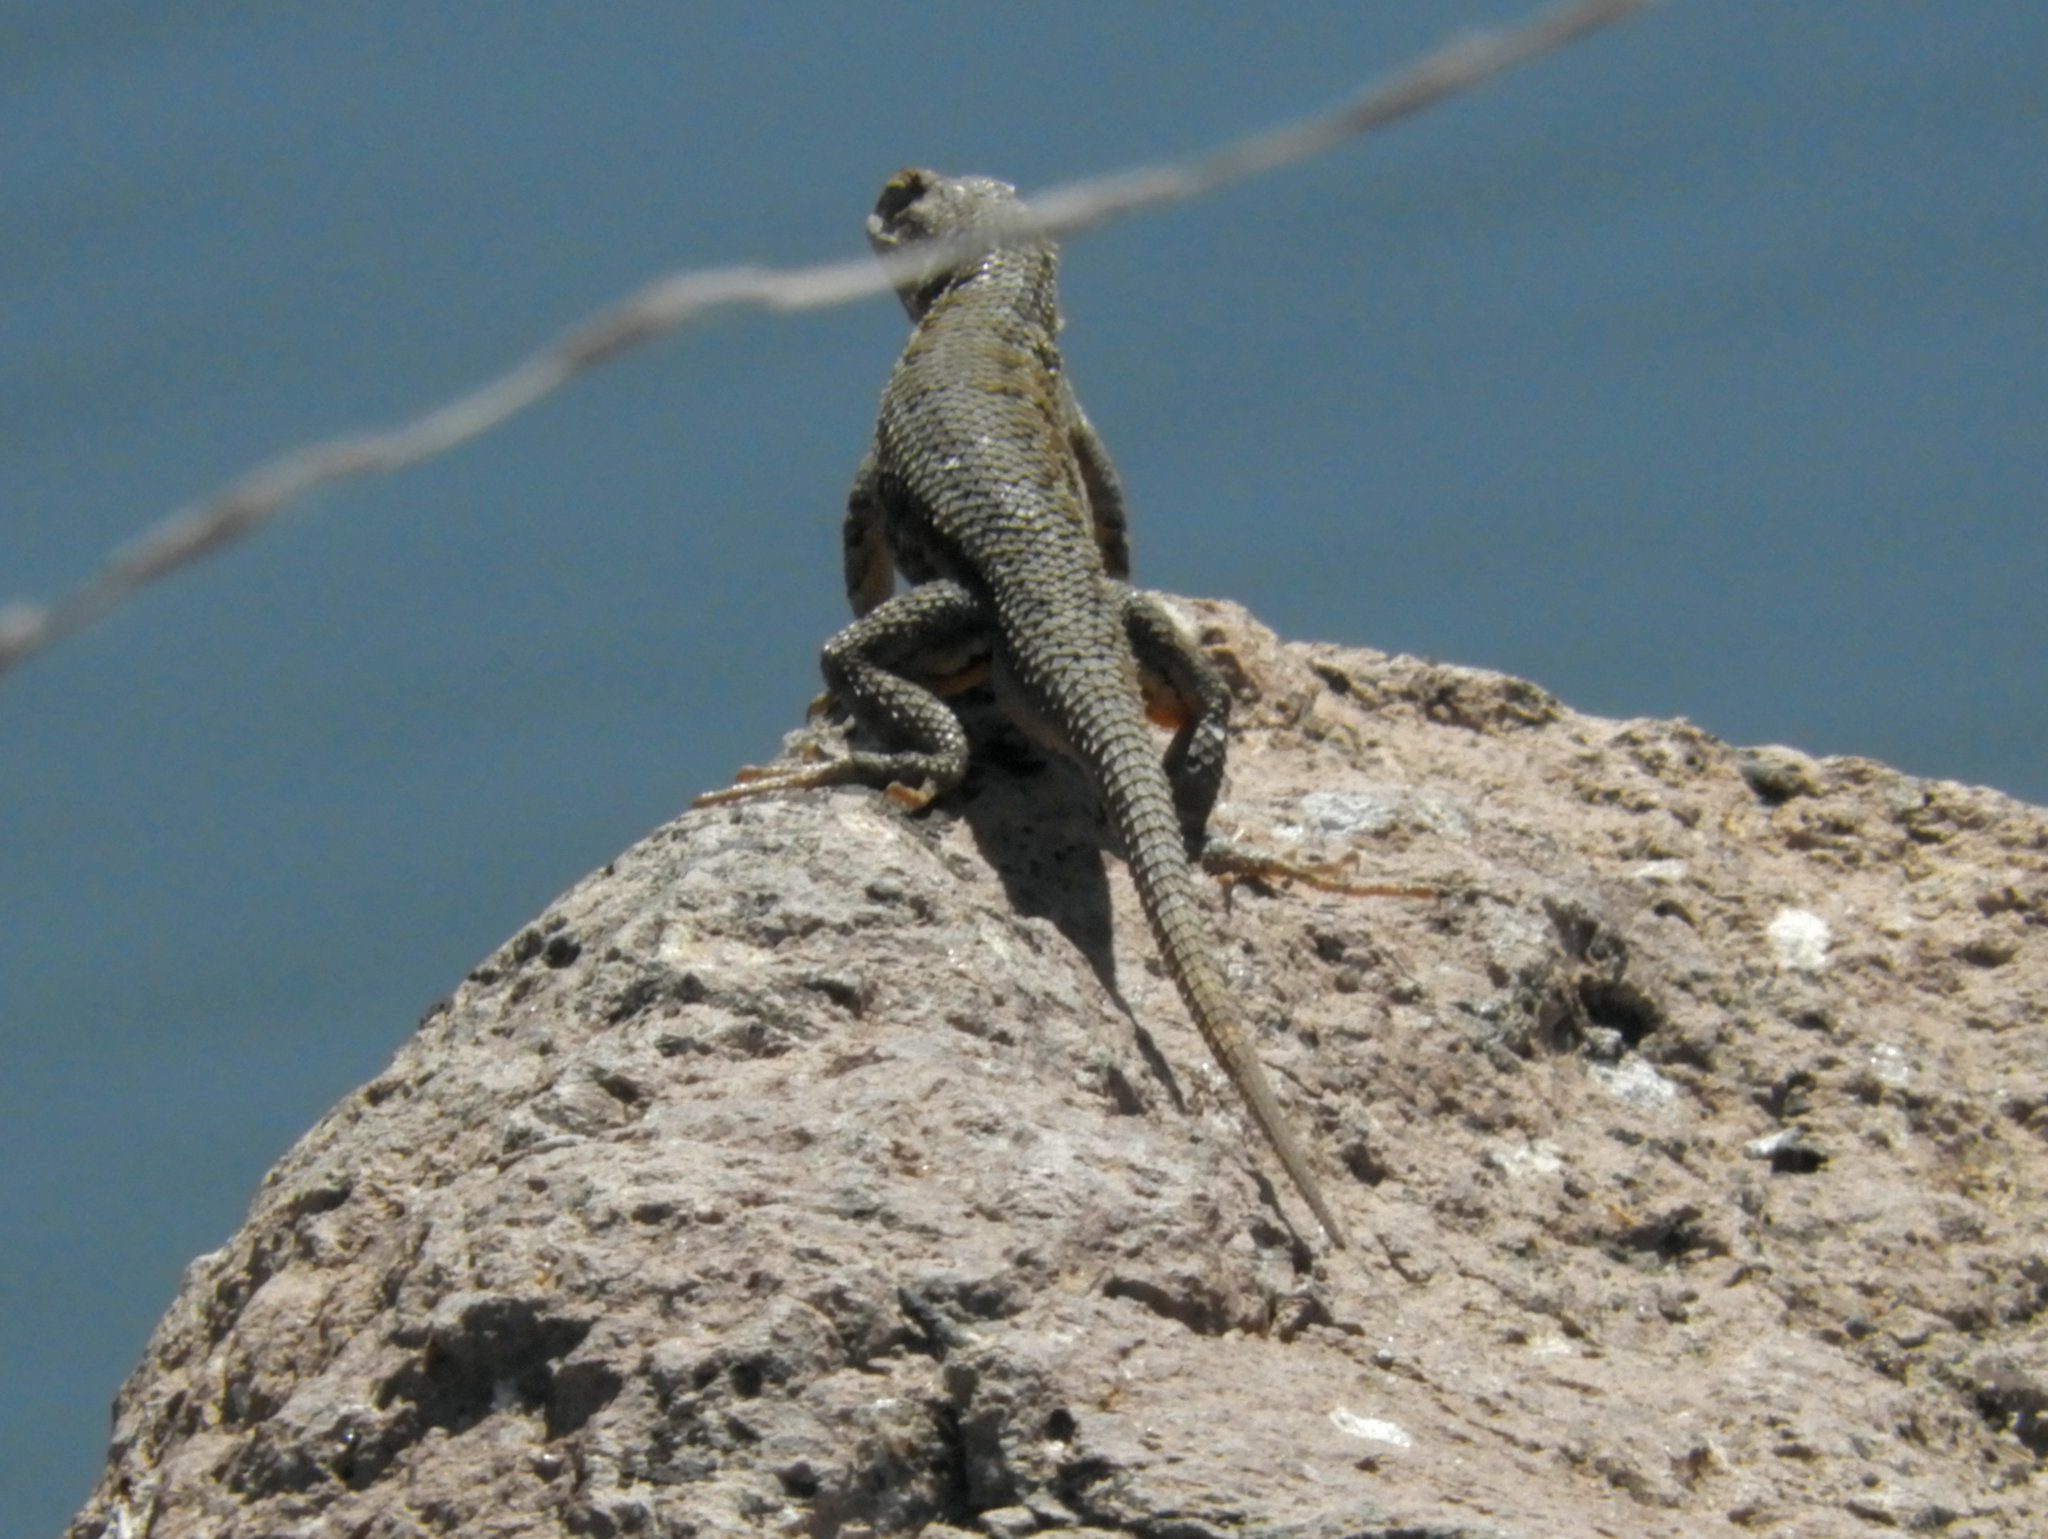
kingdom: Animalia
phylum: Chordata
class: Squamata
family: Phrynosomatidae
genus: Sceloporus
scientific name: Sceloporus occidentalis
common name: Western fence lizard
